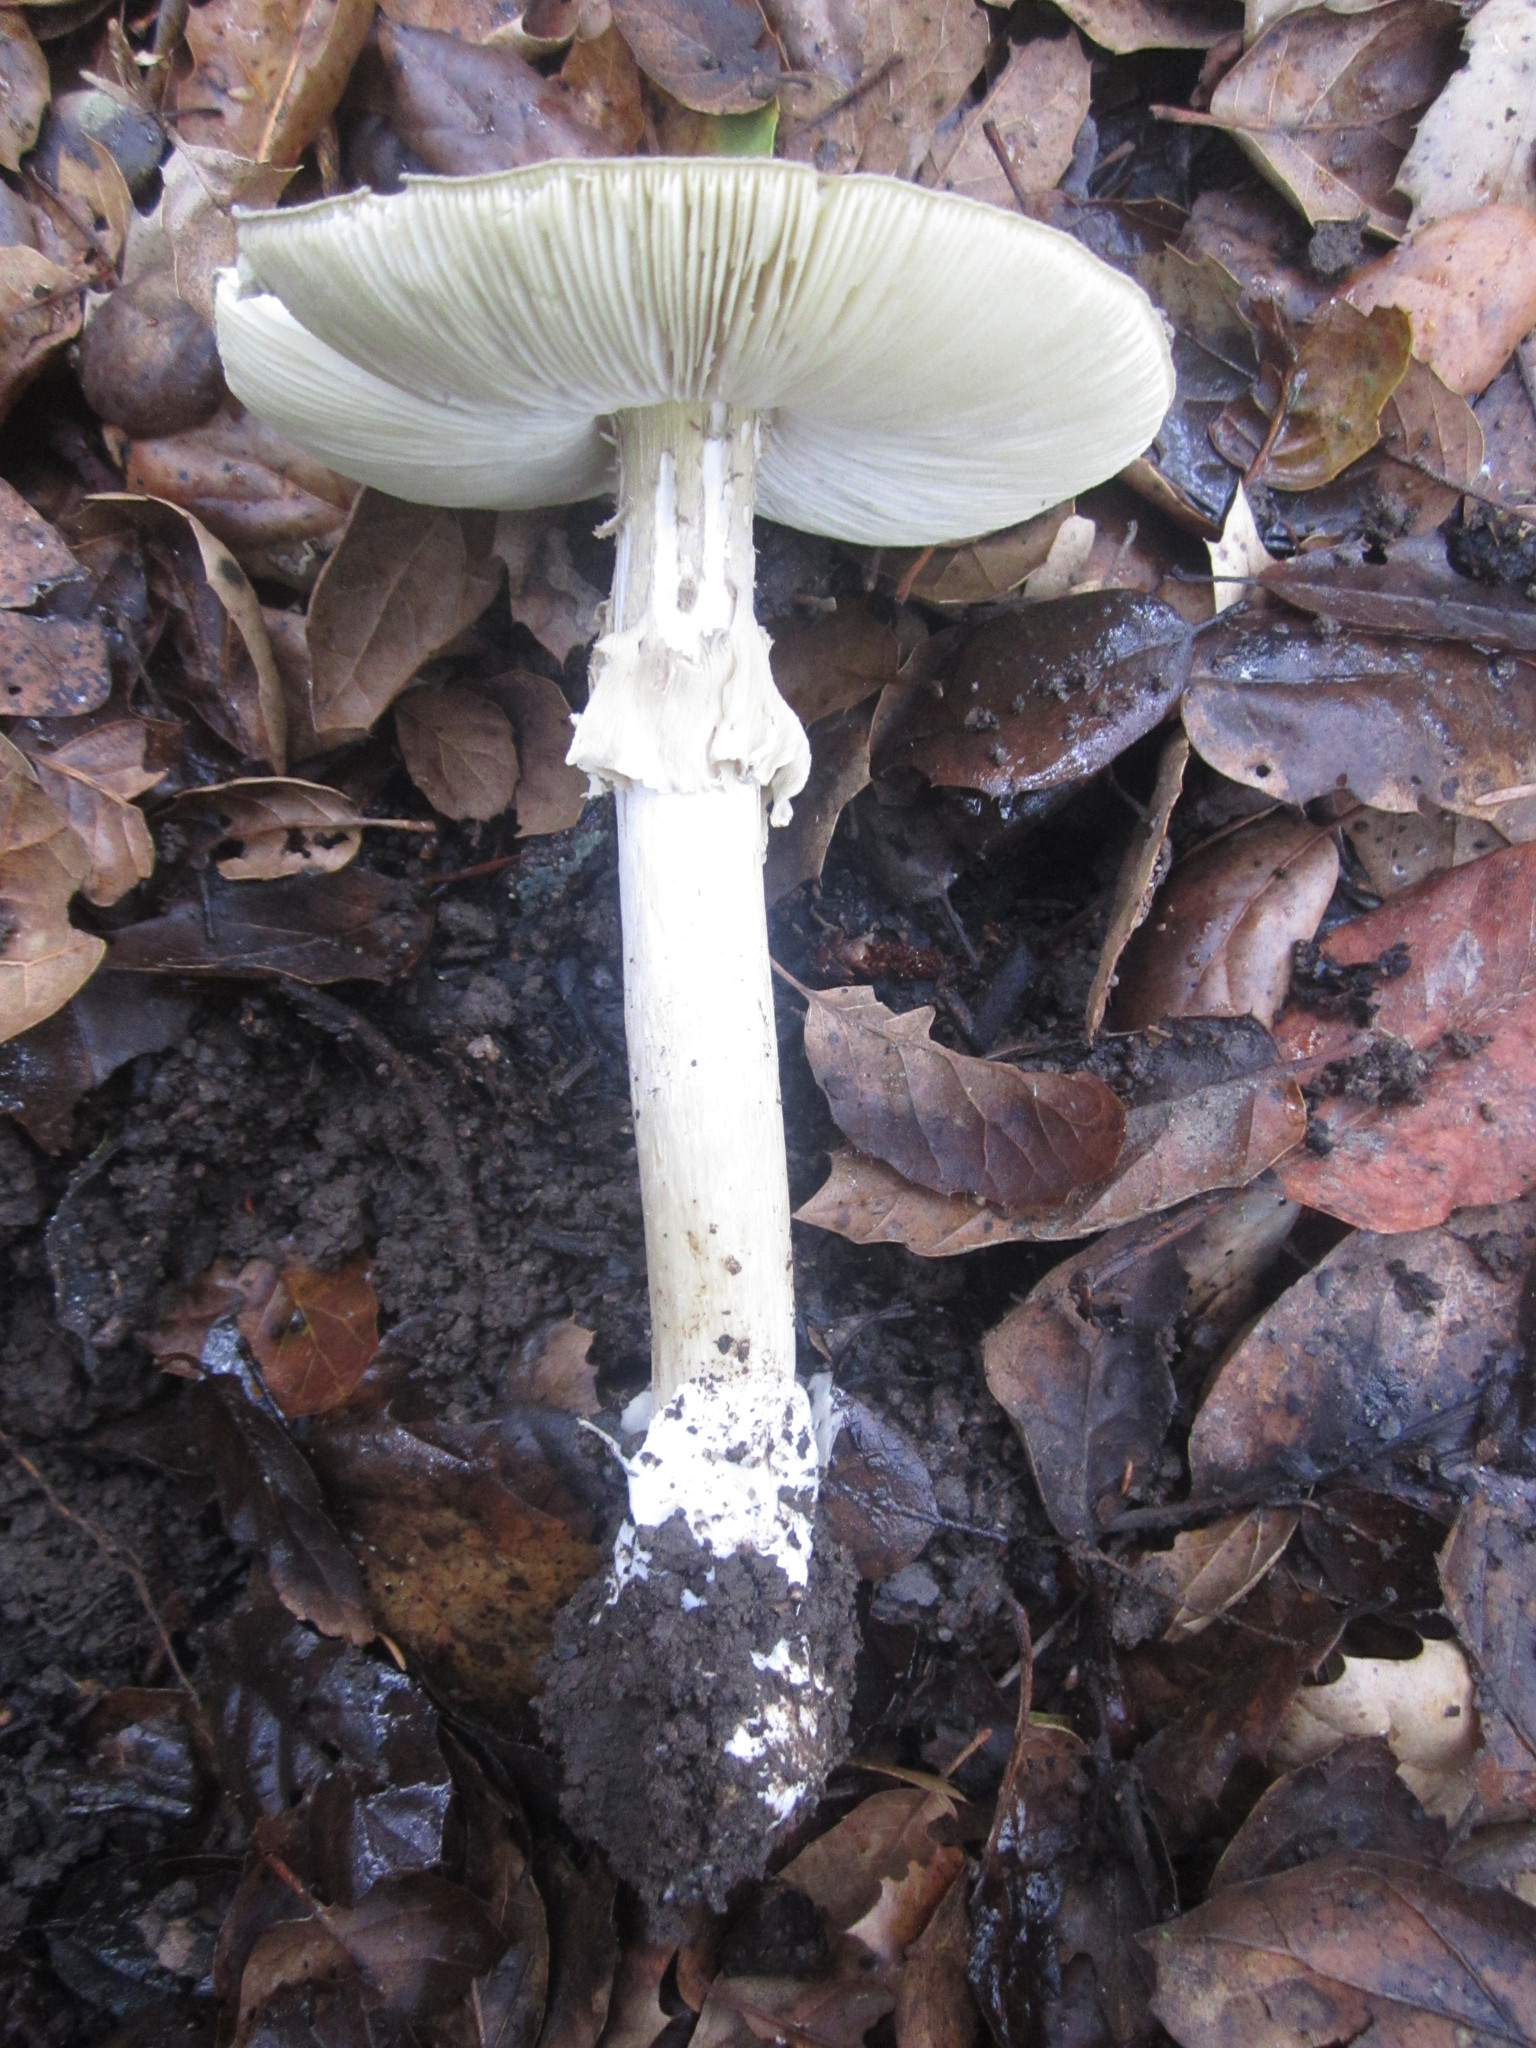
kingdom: Fungi
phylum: Basidiomycota
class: Agaricomycetes
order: Agaricales
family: Amanitaceae
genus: Amanita
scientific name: Amanita phalloides
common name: Death cap
